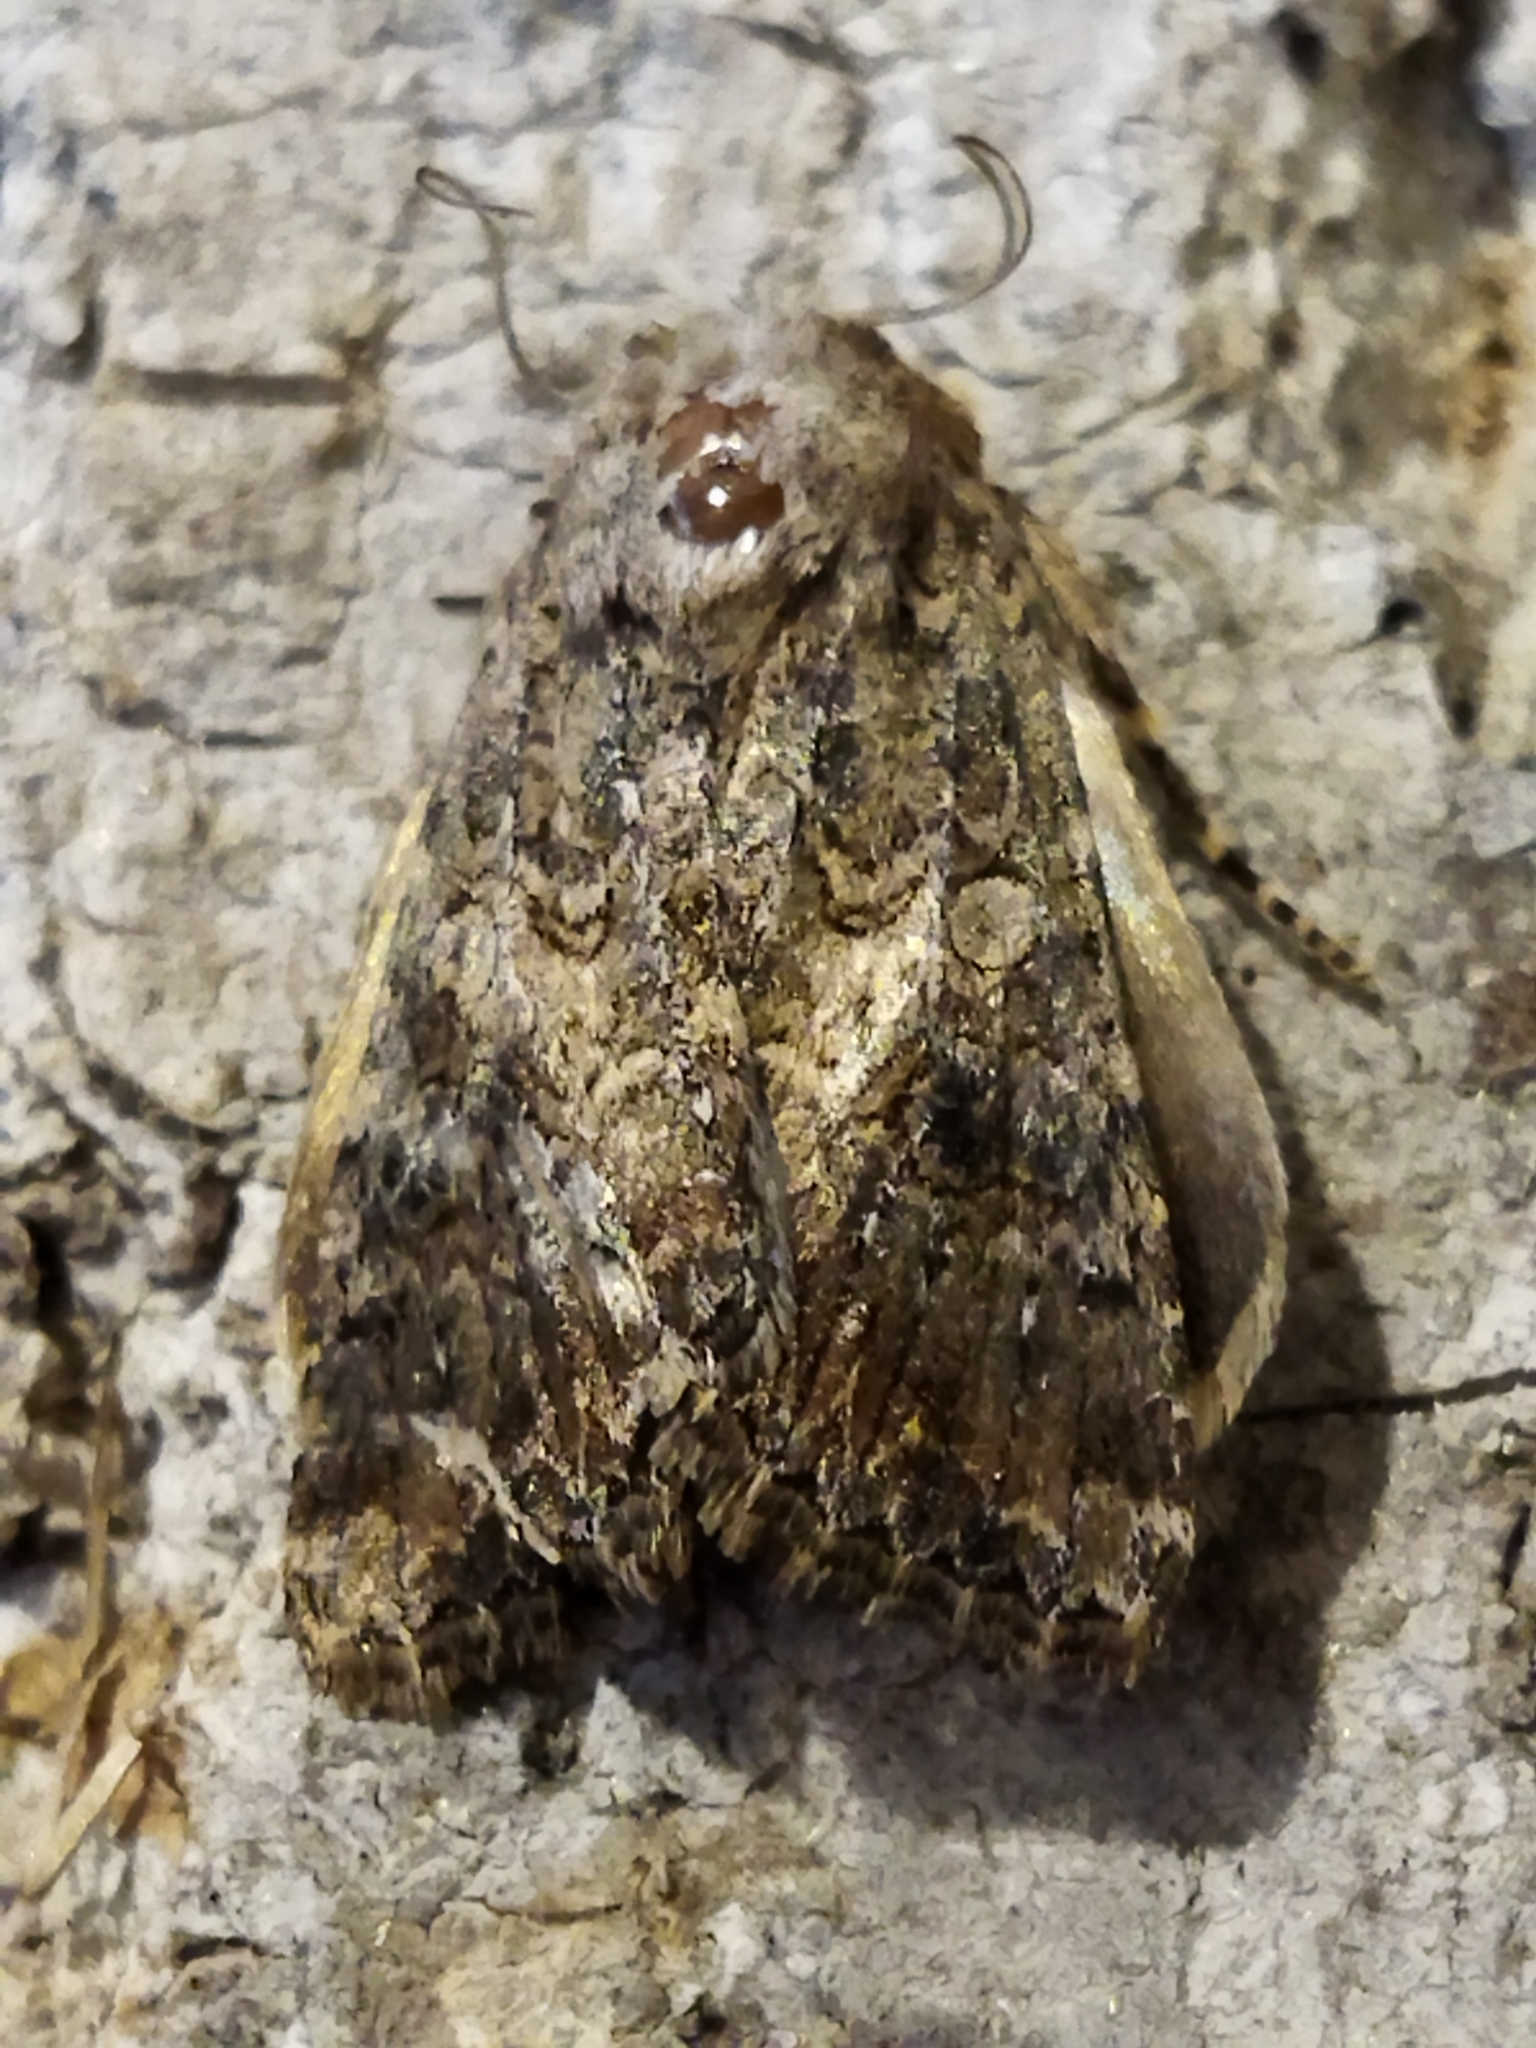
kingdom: Animalia
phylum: Arthropoda
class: Insecta
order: Lepidoptera
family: Noctuidae
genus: Anarta
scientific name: Anarta trifolii
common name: Clover cutworm moth
